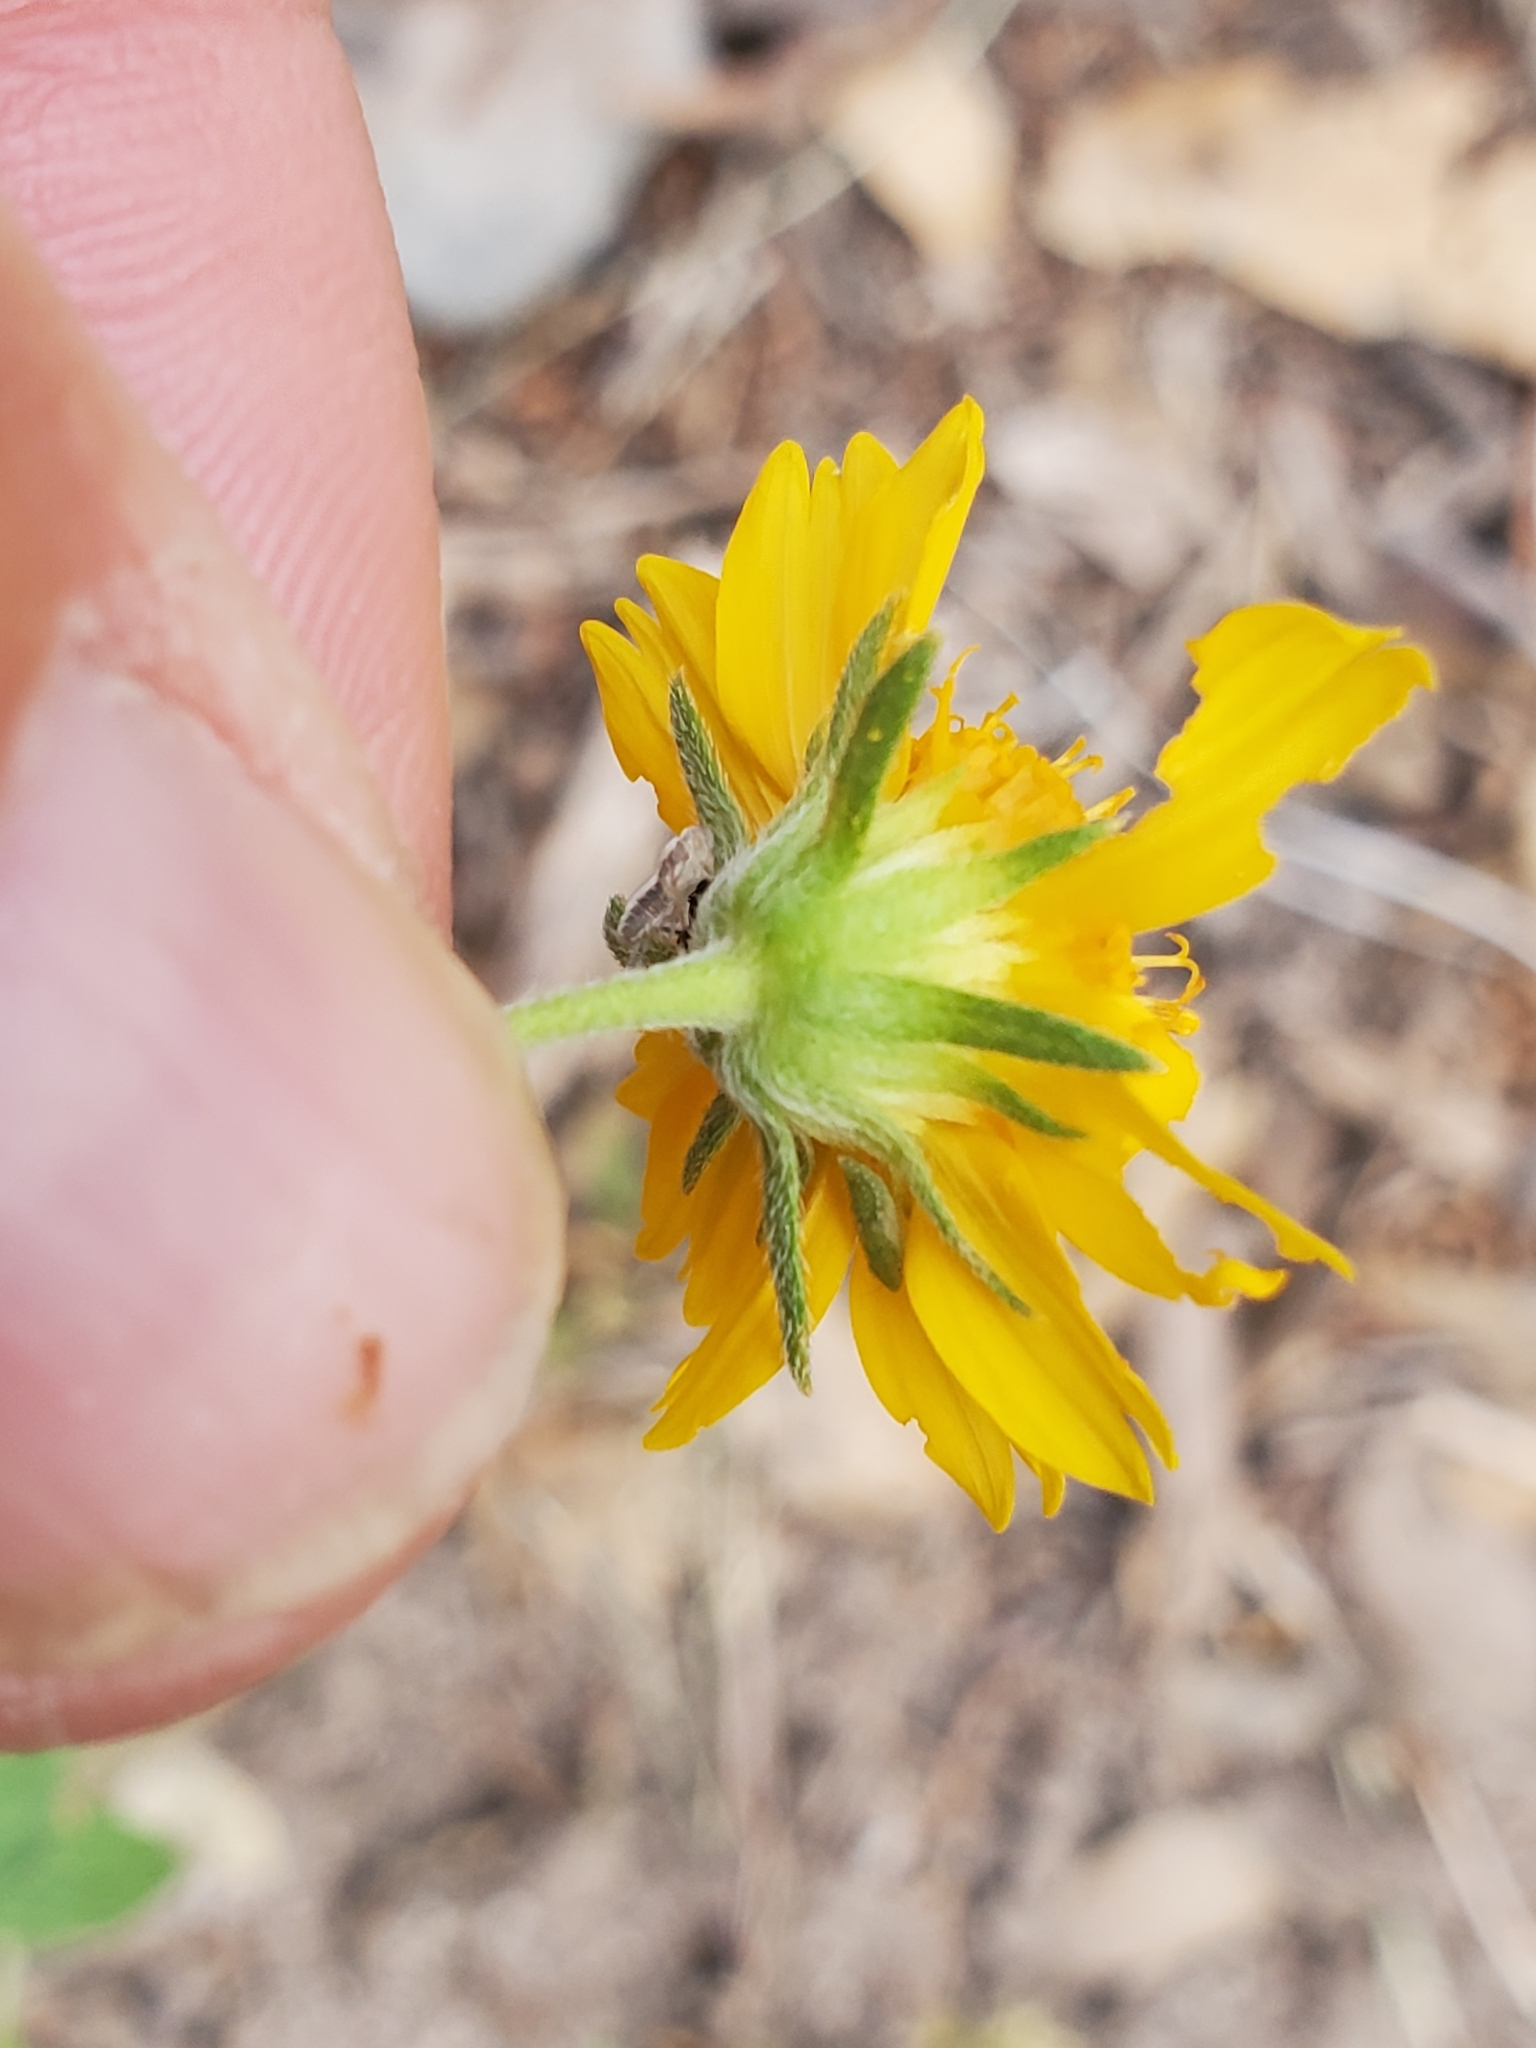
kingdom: Plantae
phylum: Tracheophyta
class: Magnoliopsida
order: Asterales
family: Asteraceae
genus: Verbesina
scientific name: Verbesina encelioides
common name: Golden crownbeard
